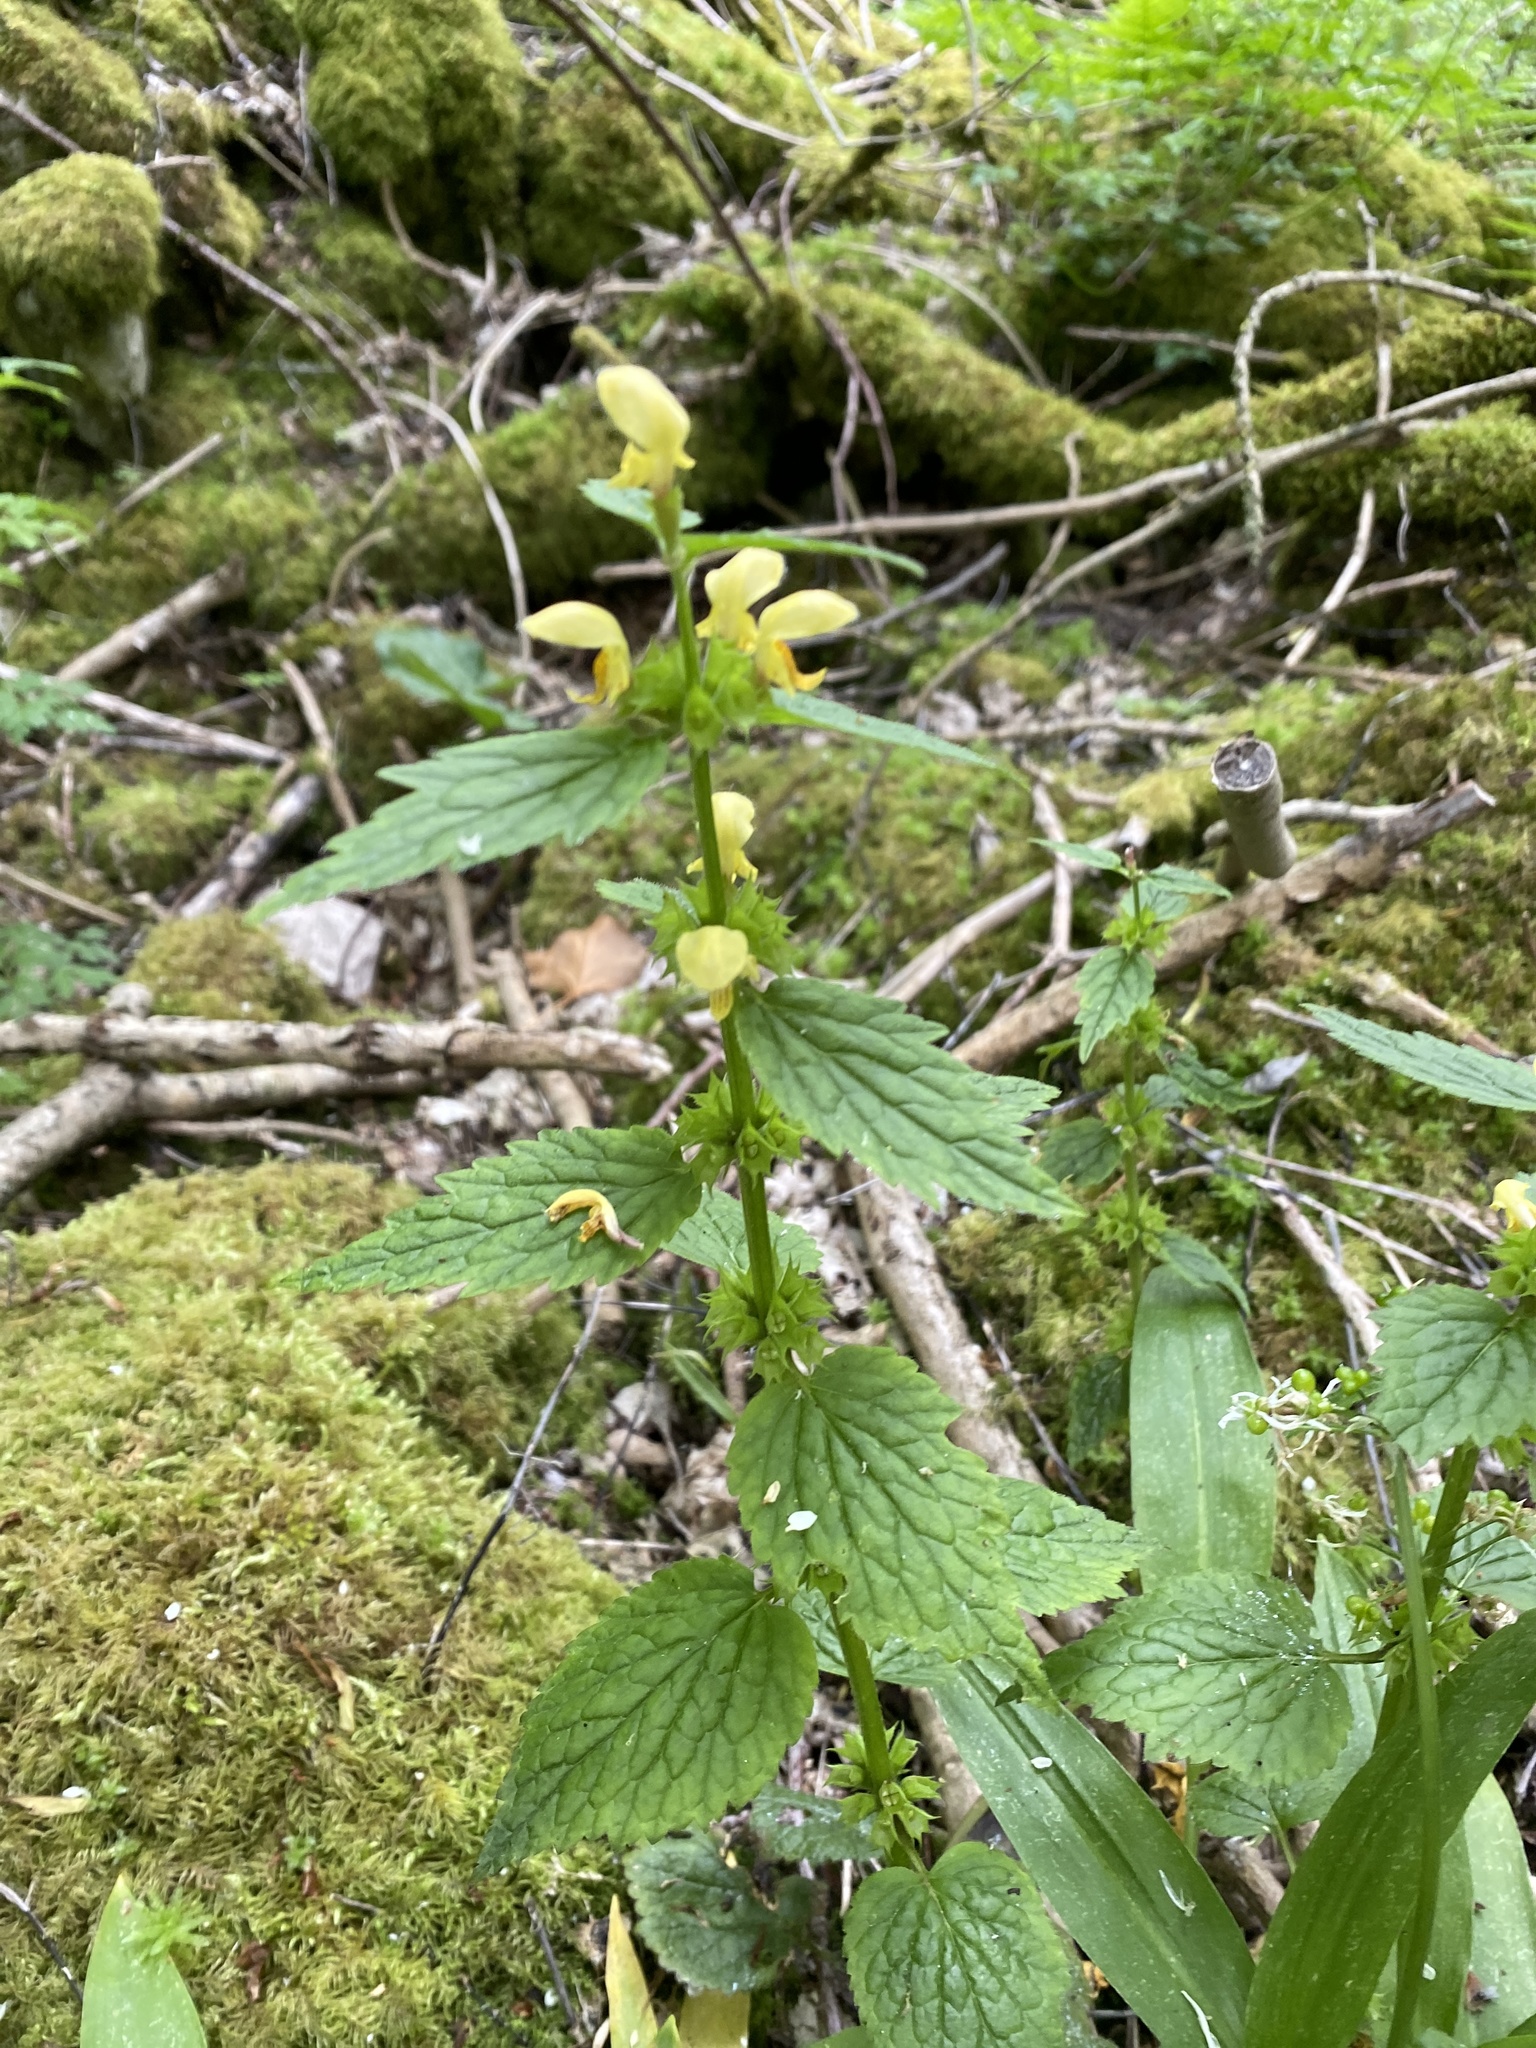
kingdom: Plantae
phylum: Tracheophyta
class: Magnoliopsida
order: Lamiales
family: Lamiaceae
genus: Lamium
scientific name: Lamium galeobdolon
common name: Yellow archangel
